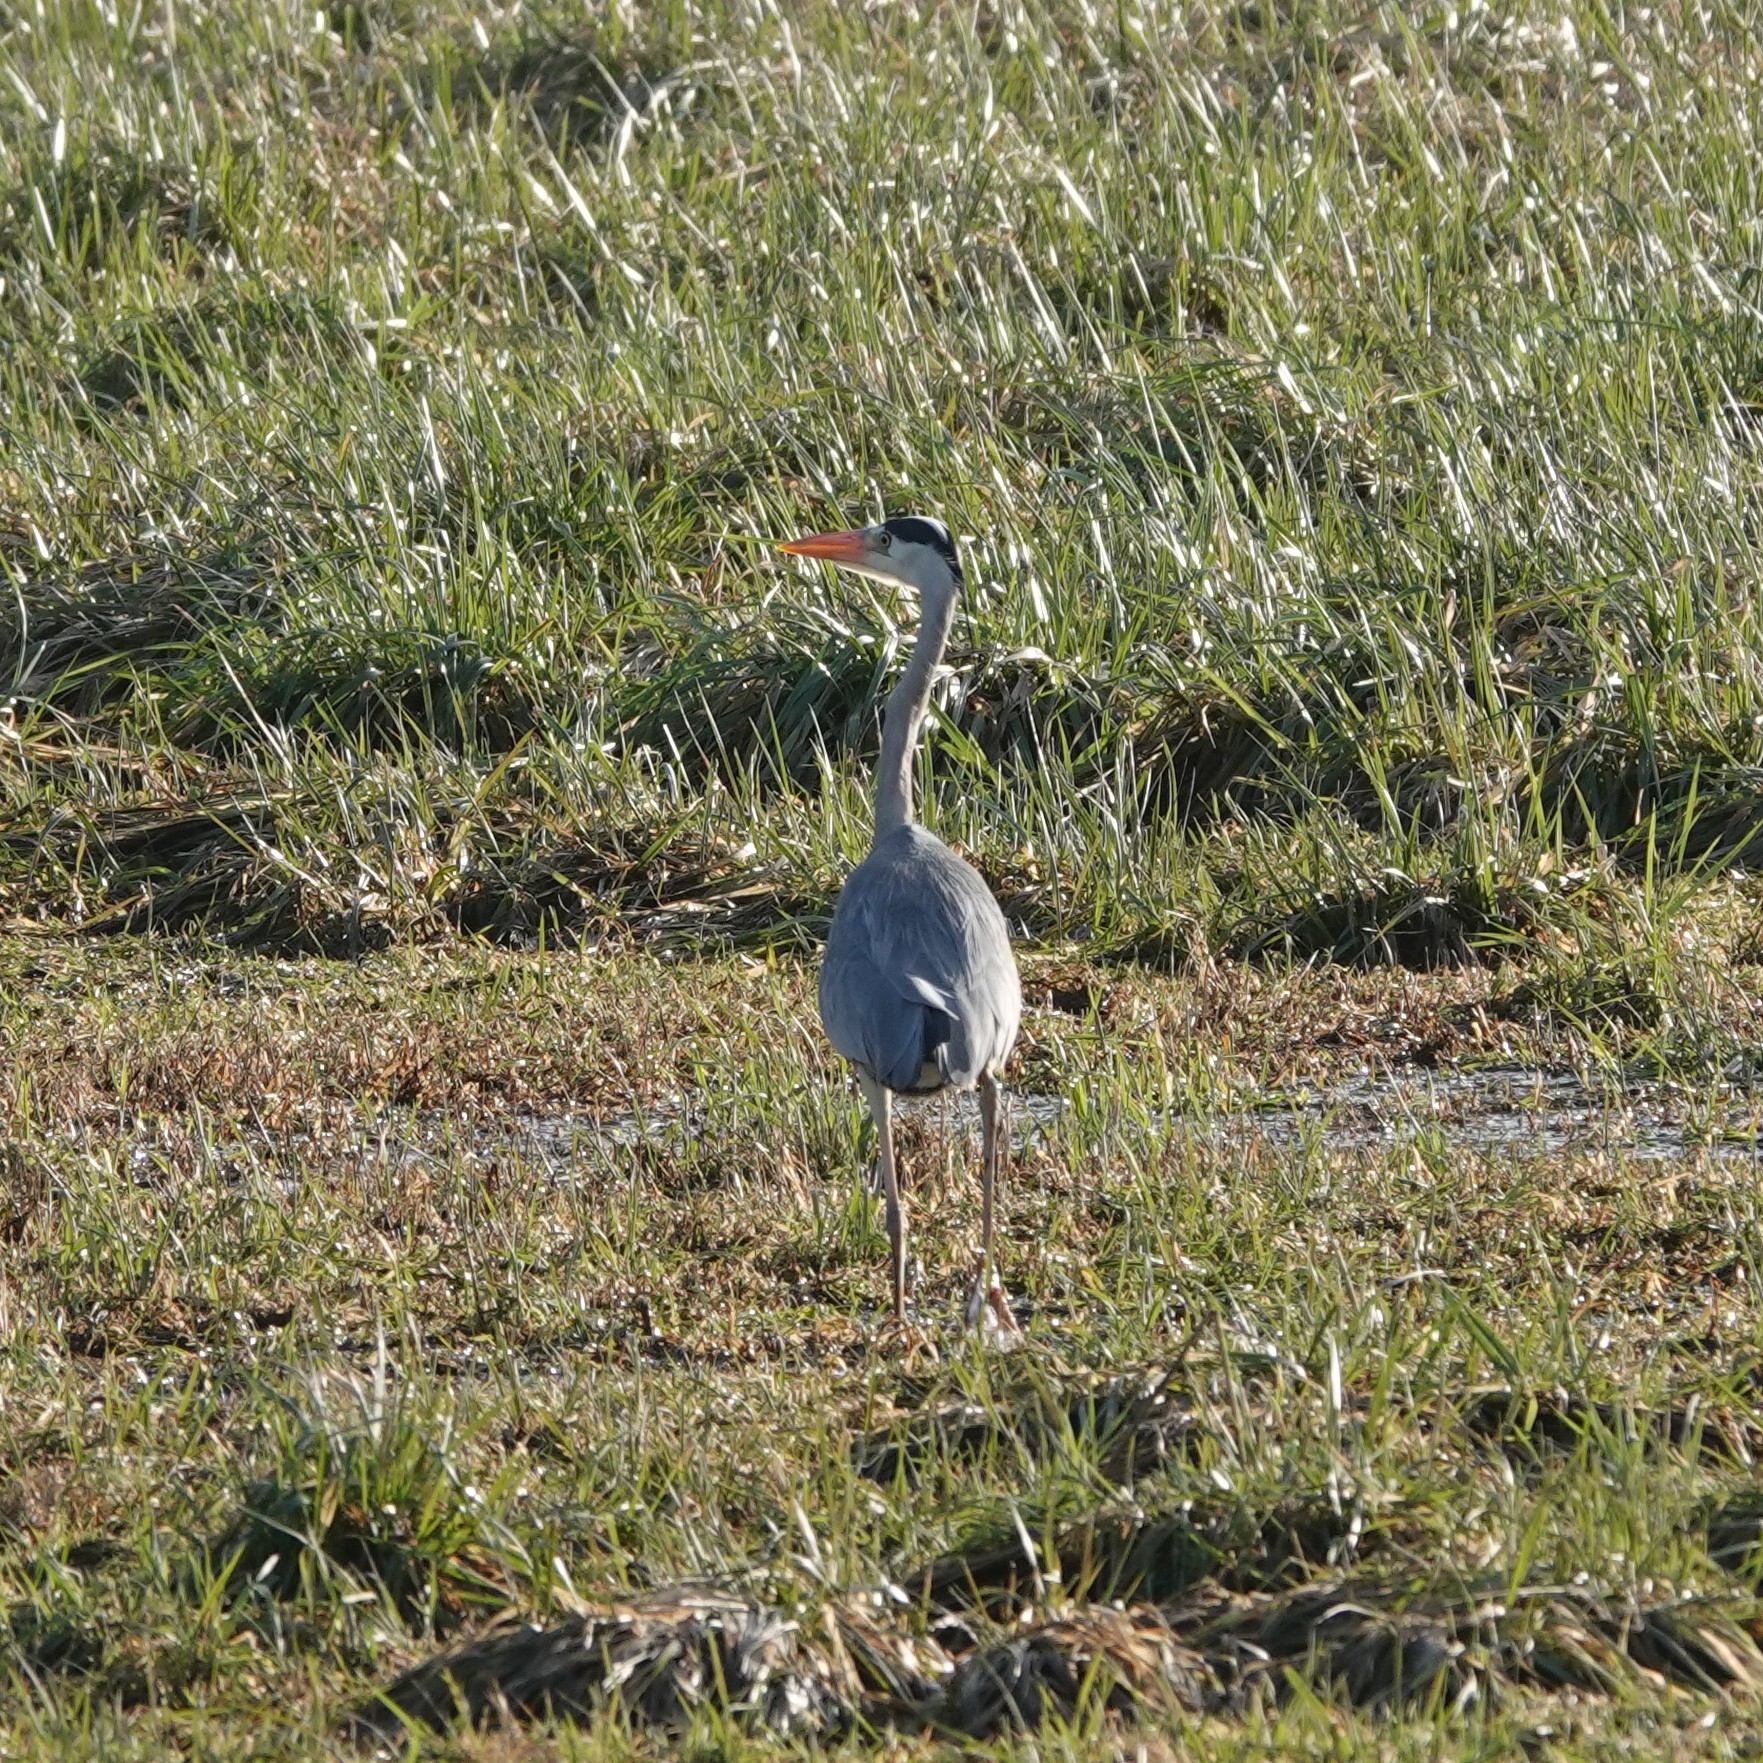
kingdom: Animalia
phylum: Chordata
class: Aves
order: Pelecaniformes
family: Ardeidae
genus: Ardea
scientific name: Ardea cinerea
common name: Grey heron
